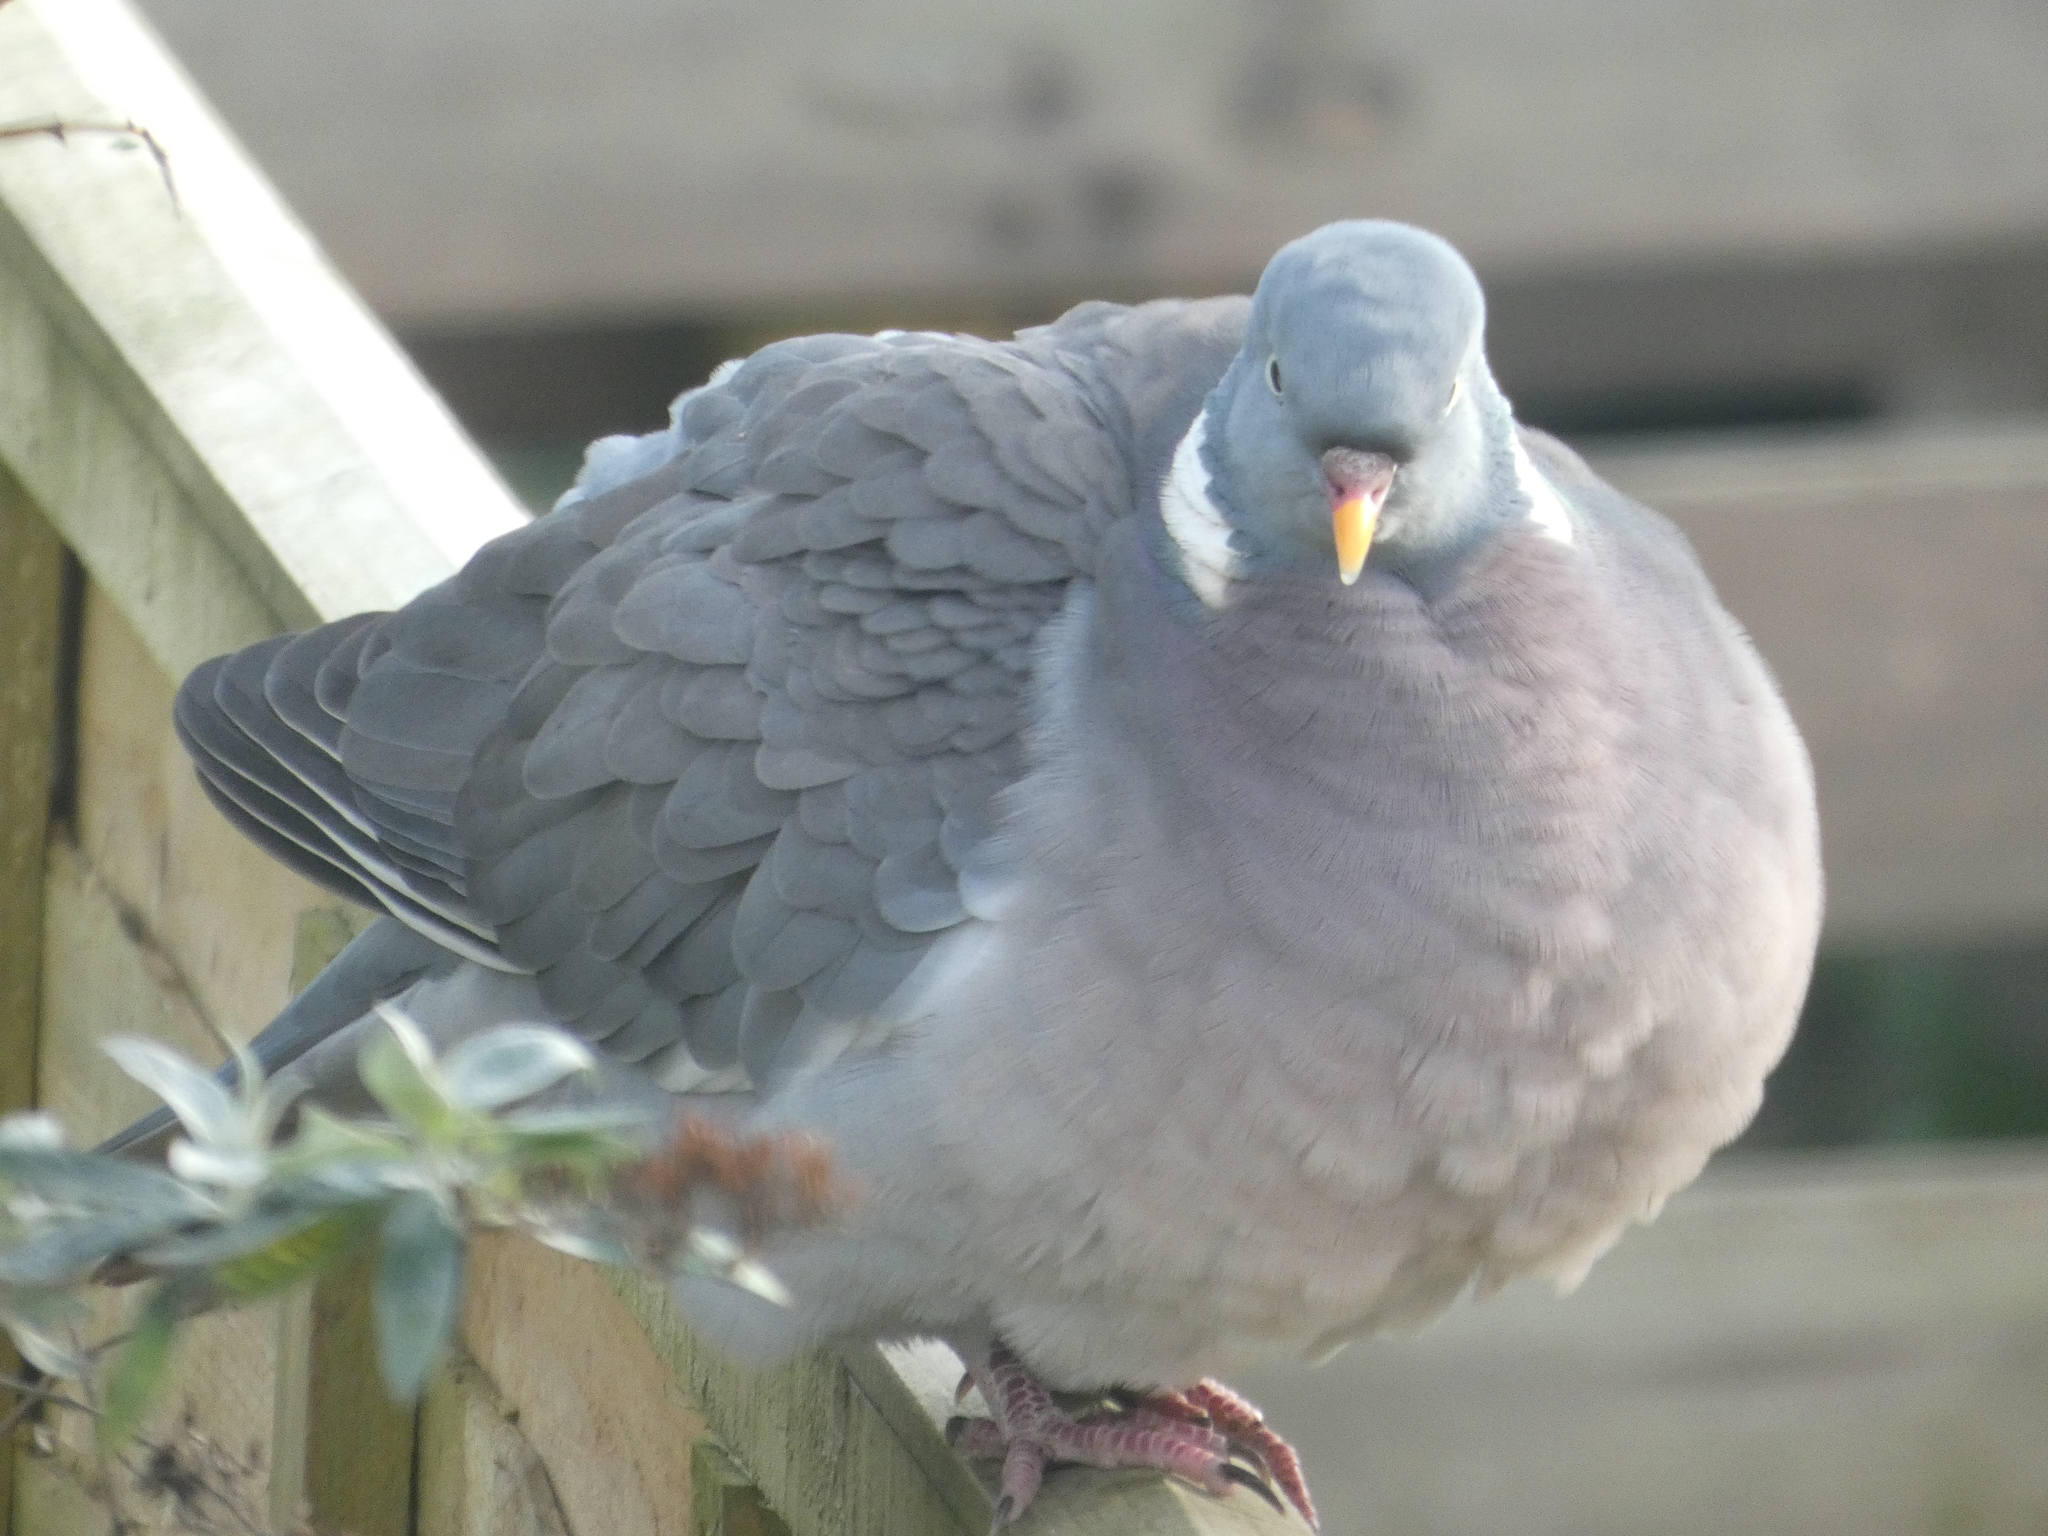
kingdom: Animalia
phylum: Chordata
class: Aves
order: Columbiformes
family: Columbidae
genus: Columba
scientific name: Columba palumbus
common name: Common wood pigeon
